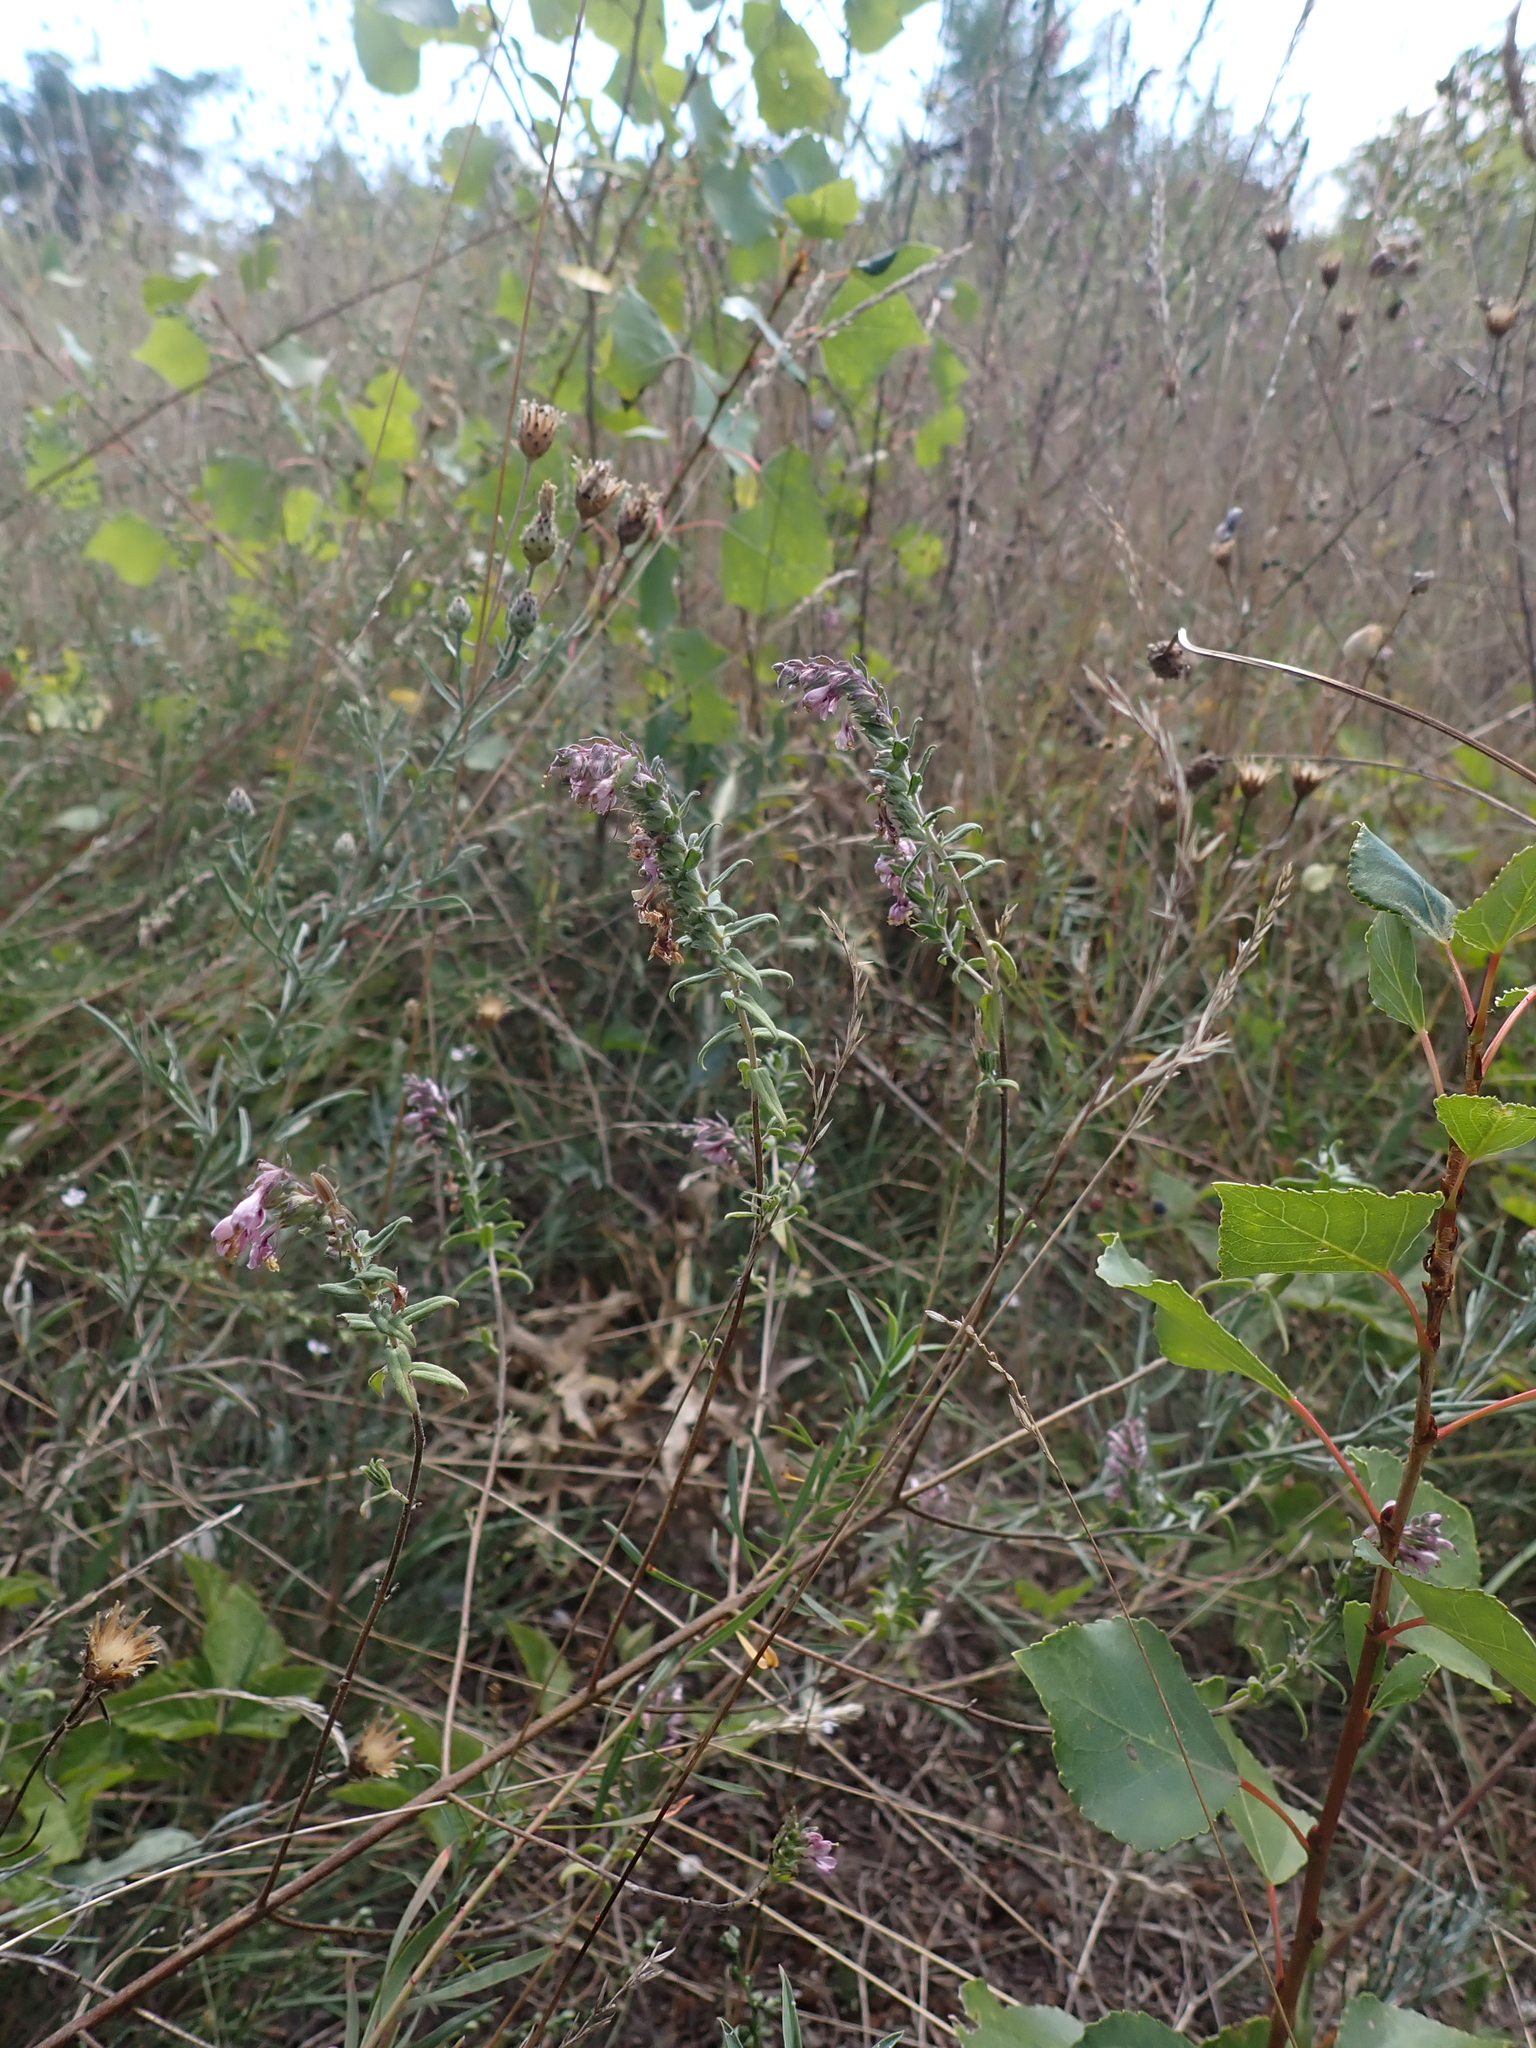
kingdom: Plantae
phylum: Tracheophyta
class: Magnoliopsida
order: Lamiales
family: Orobanchaceae
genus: Odontites
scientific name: Odontites vulgaris
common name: Broomrape
